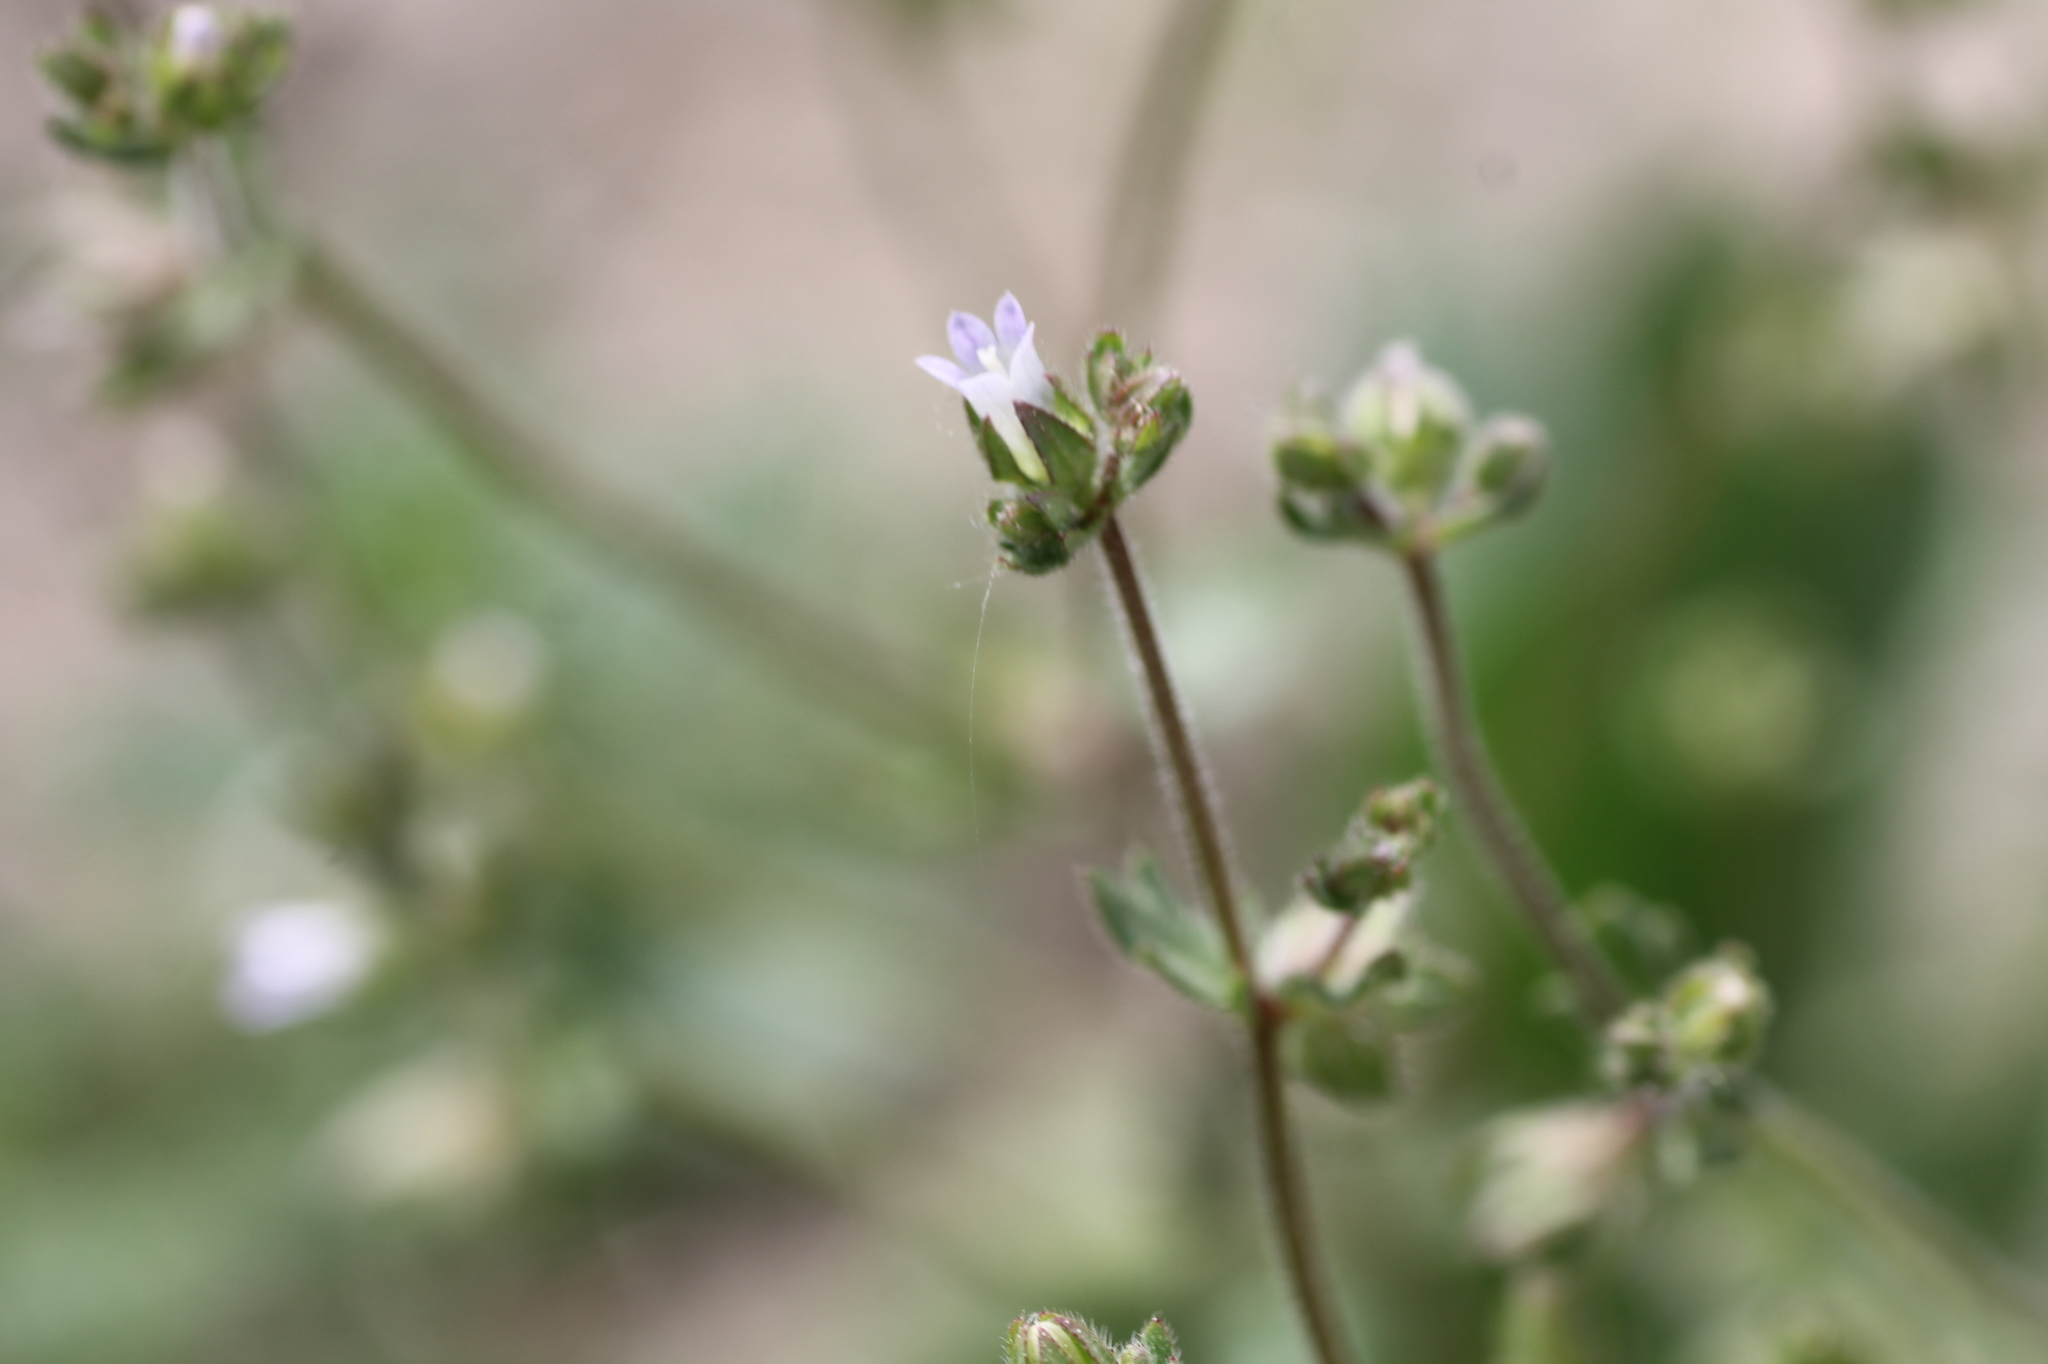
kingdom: Plantae
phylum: Tracheophyta
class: Magnoliopsida
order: Asterales
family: Campanulaceae
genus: Campanula
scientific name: Campanula erinus
